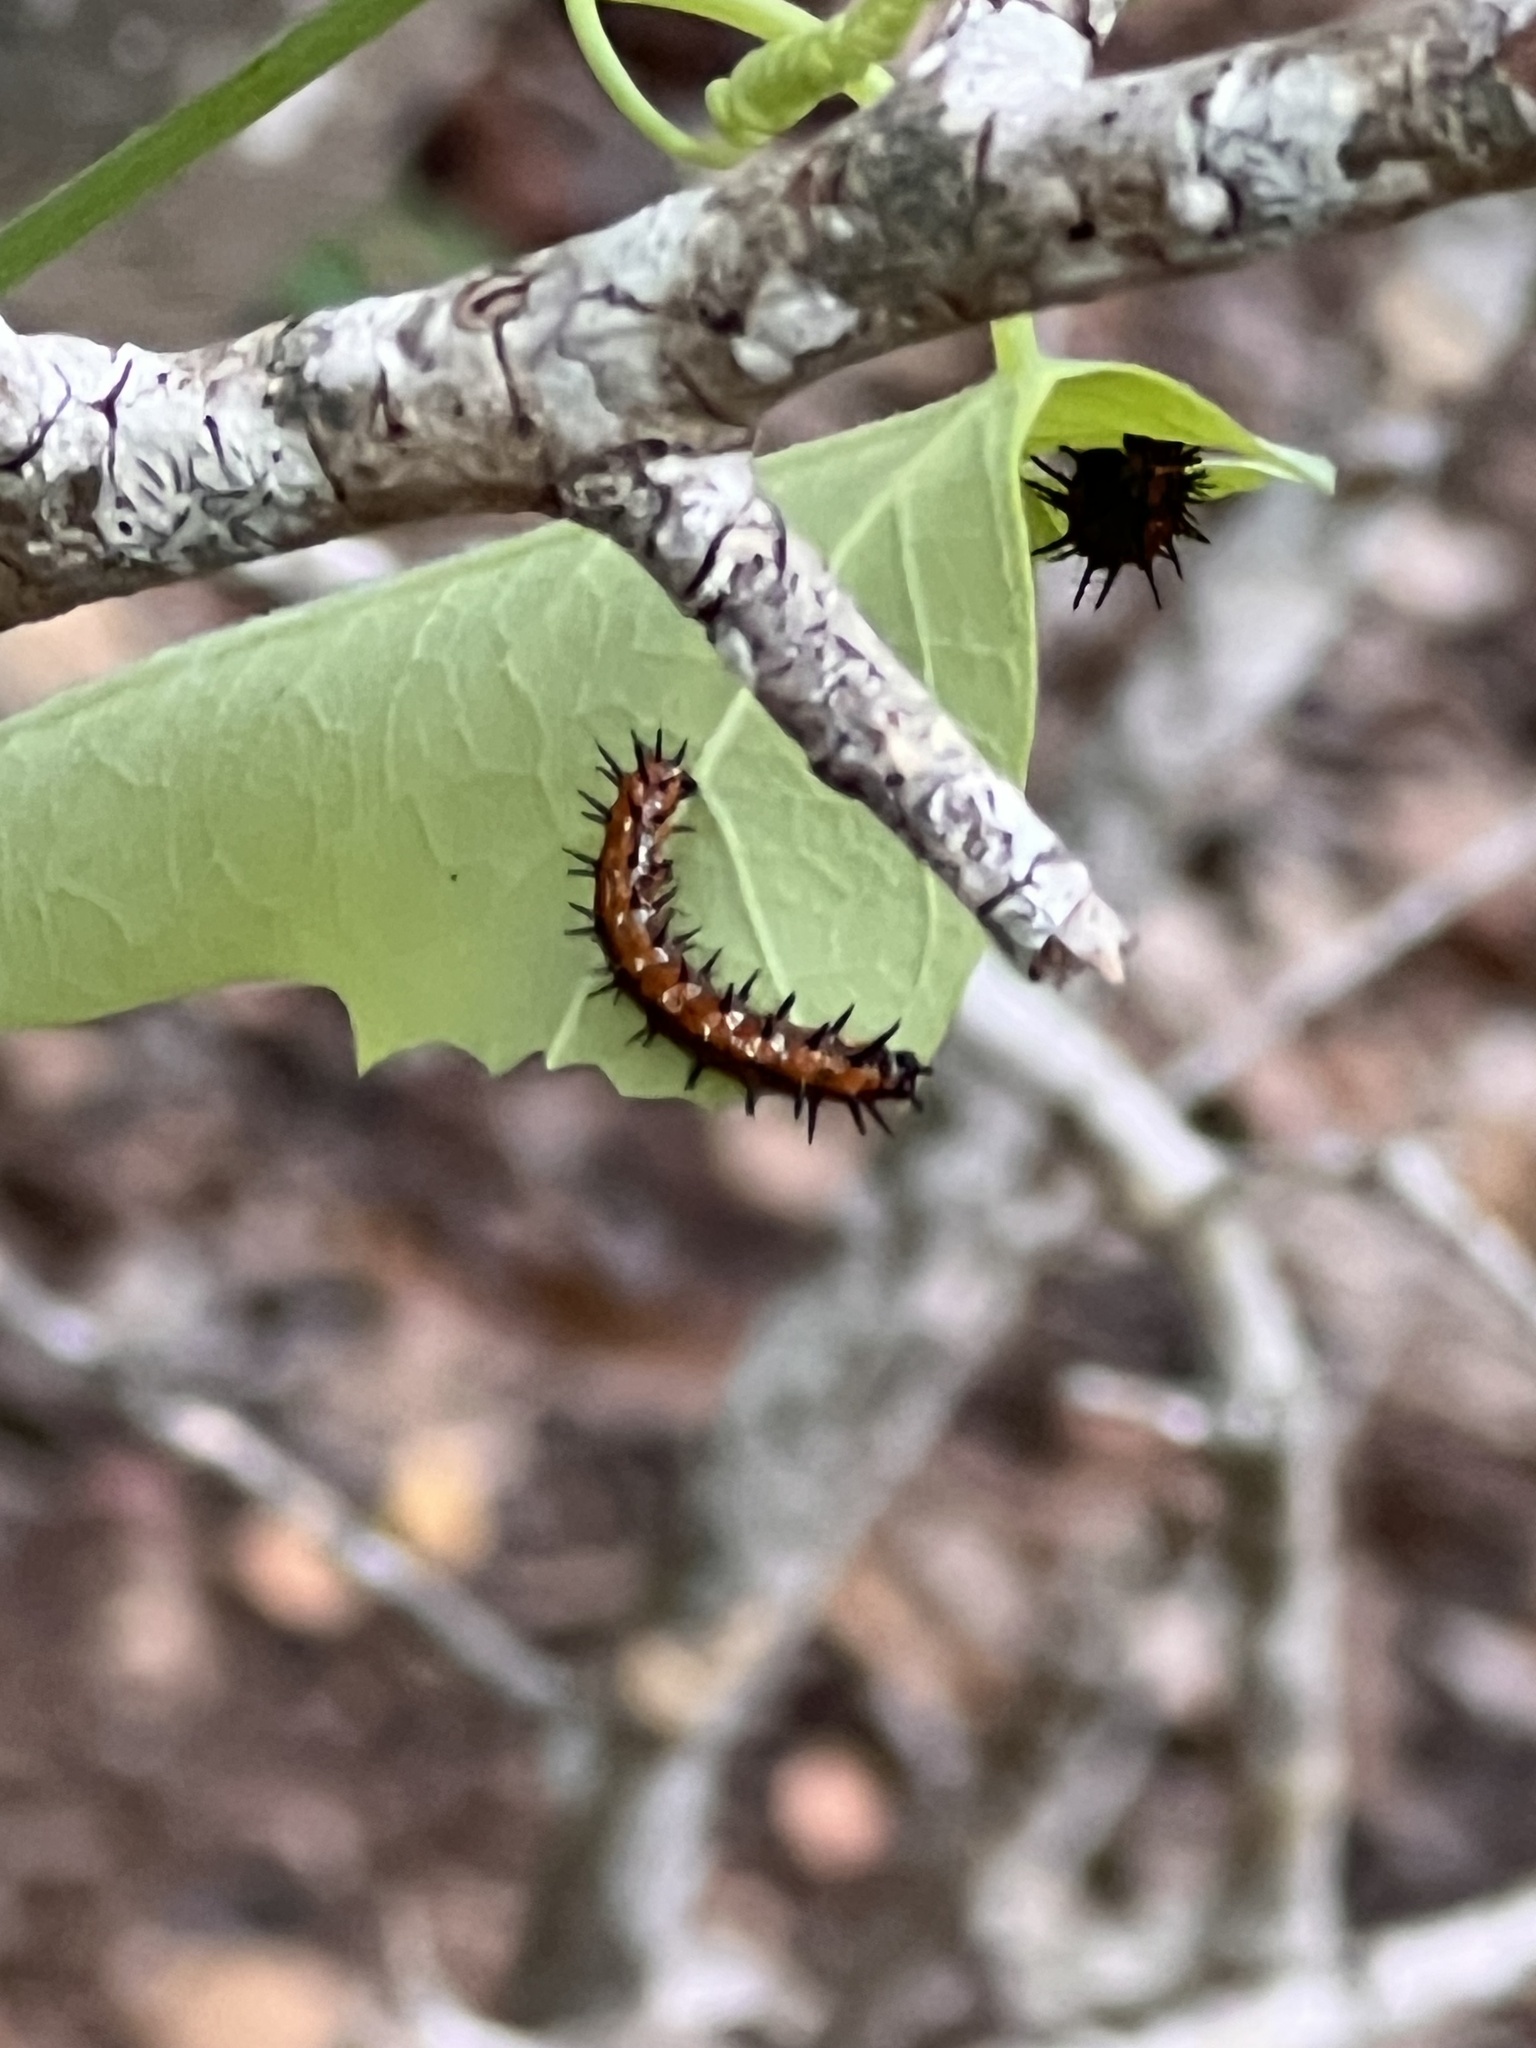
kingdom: Animalia
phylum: Arthropoda
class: Insecta
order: Lepidoptera
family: Nymphalidae
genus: Dione
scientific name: Dione vanillae
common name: Gulf fritillary
